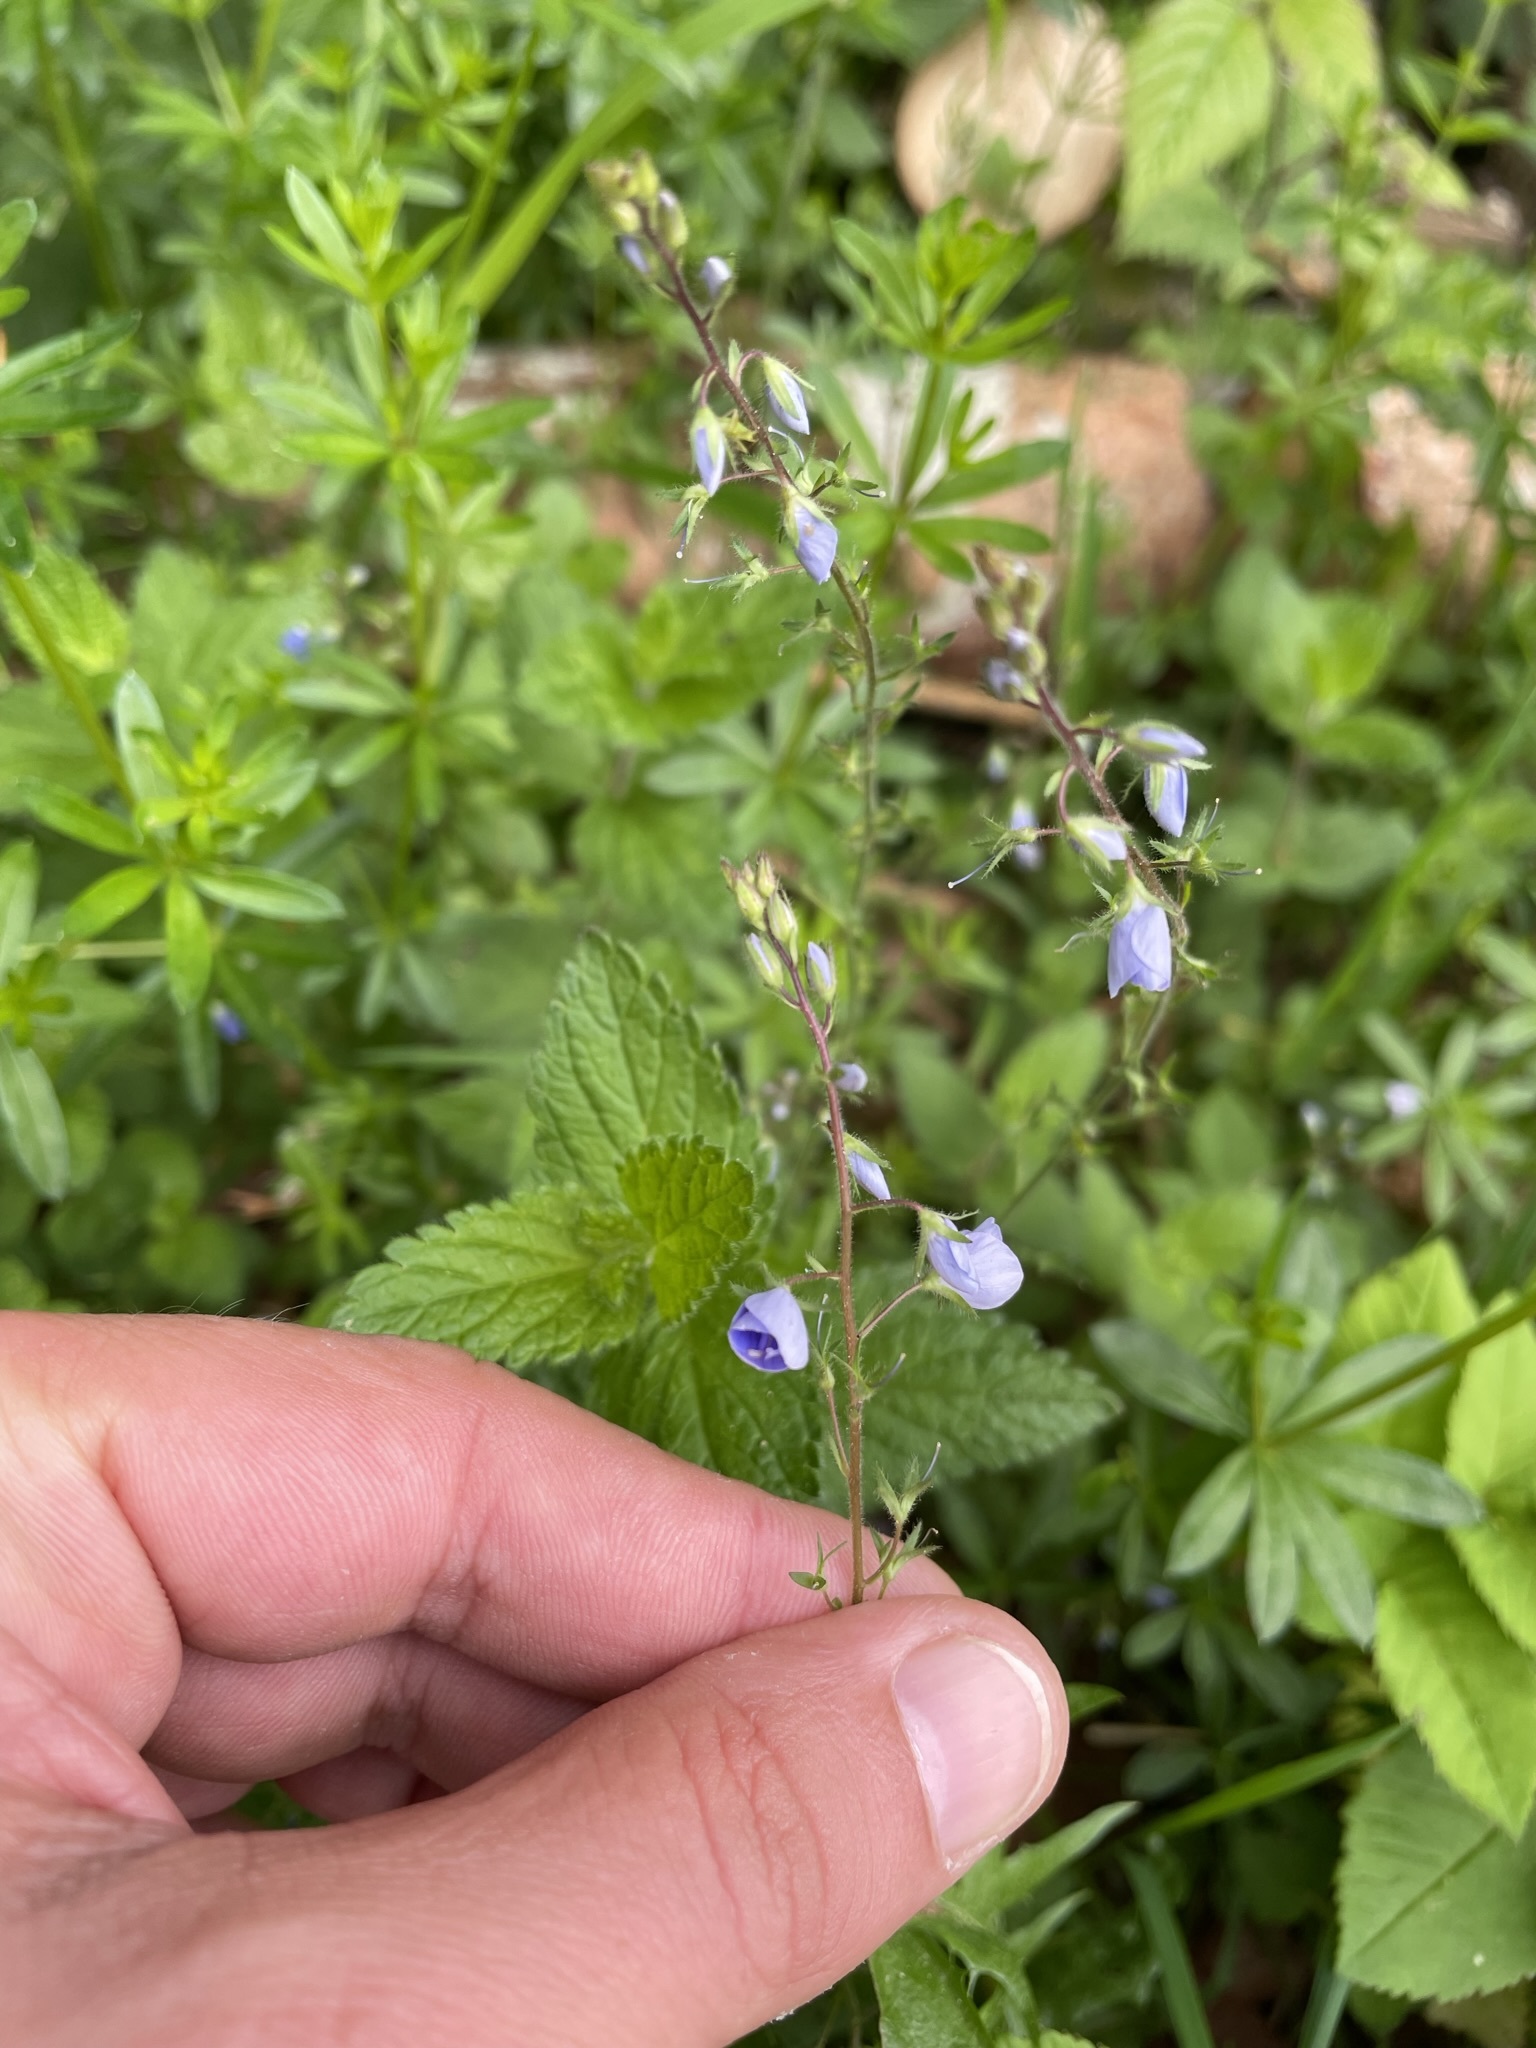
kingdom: Plantae
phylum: Tracheophyta
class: Magnoliopsida
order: Lamiales
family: Plantaginaceae
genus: Veronica
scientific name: Veronica chamaedrys
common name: Germander speedwell
